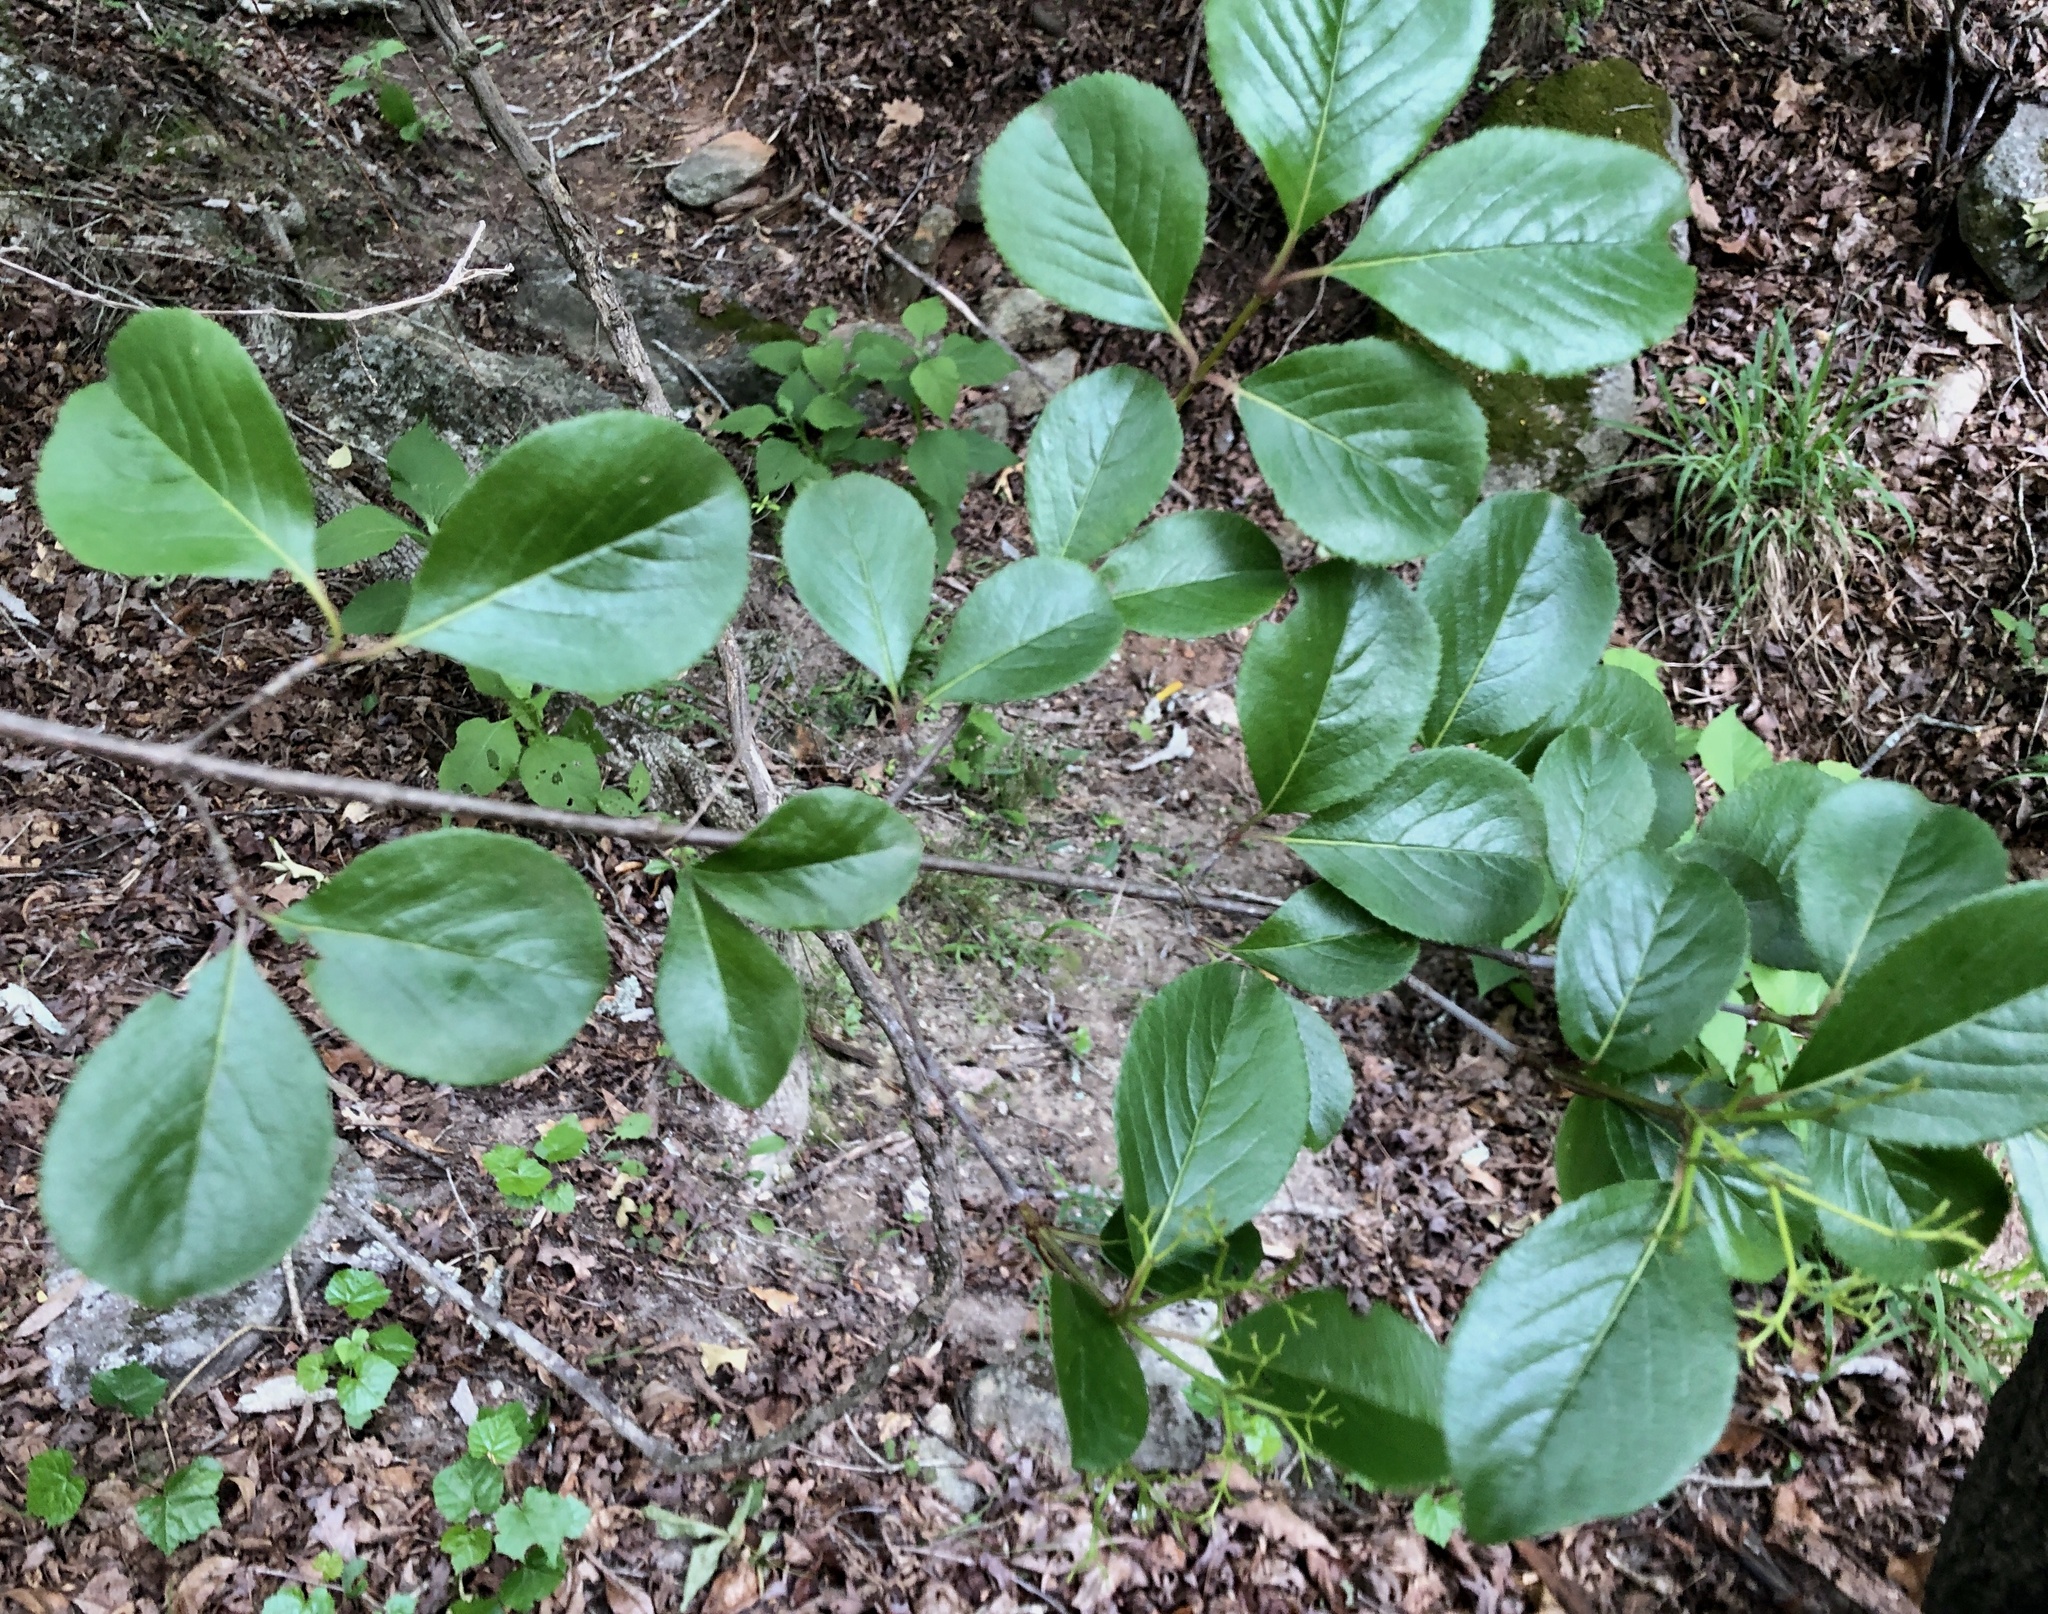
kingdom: Plantae
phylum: Tracheophyta
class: Magnoliopsida
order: Dipsacales
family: Viburnaceae
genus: Viburnum
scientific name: Viburnum rufidulum
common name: Blue haw
